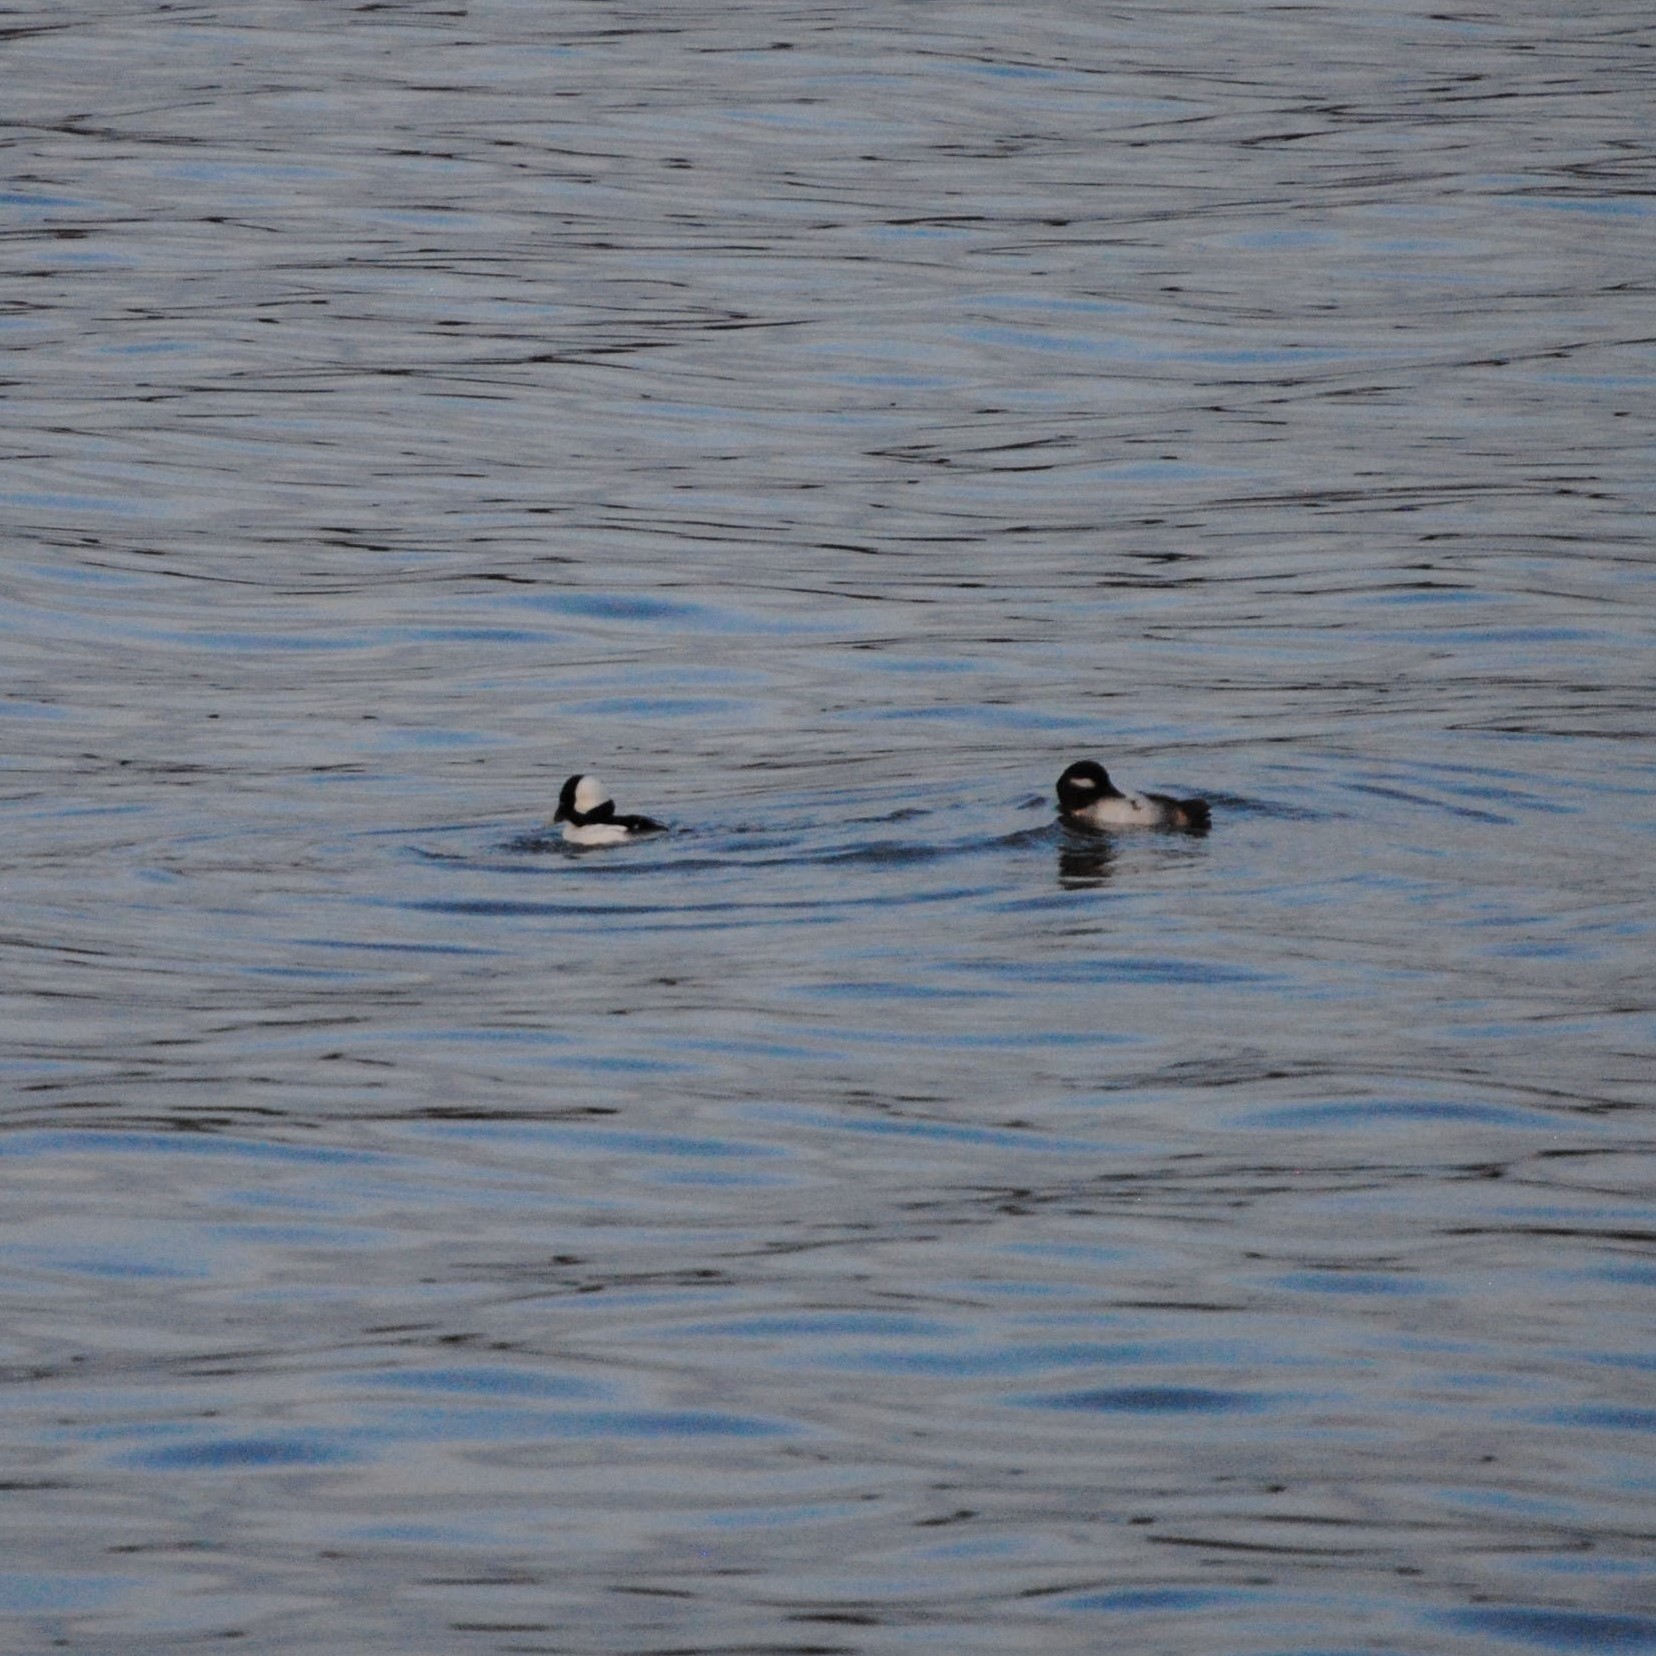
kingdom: Animalia
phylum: Chordata
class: Aves
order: Anseriformes
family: Anatidae
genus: Bucephala
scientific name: Bucephala albeola
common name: Bufflehead
